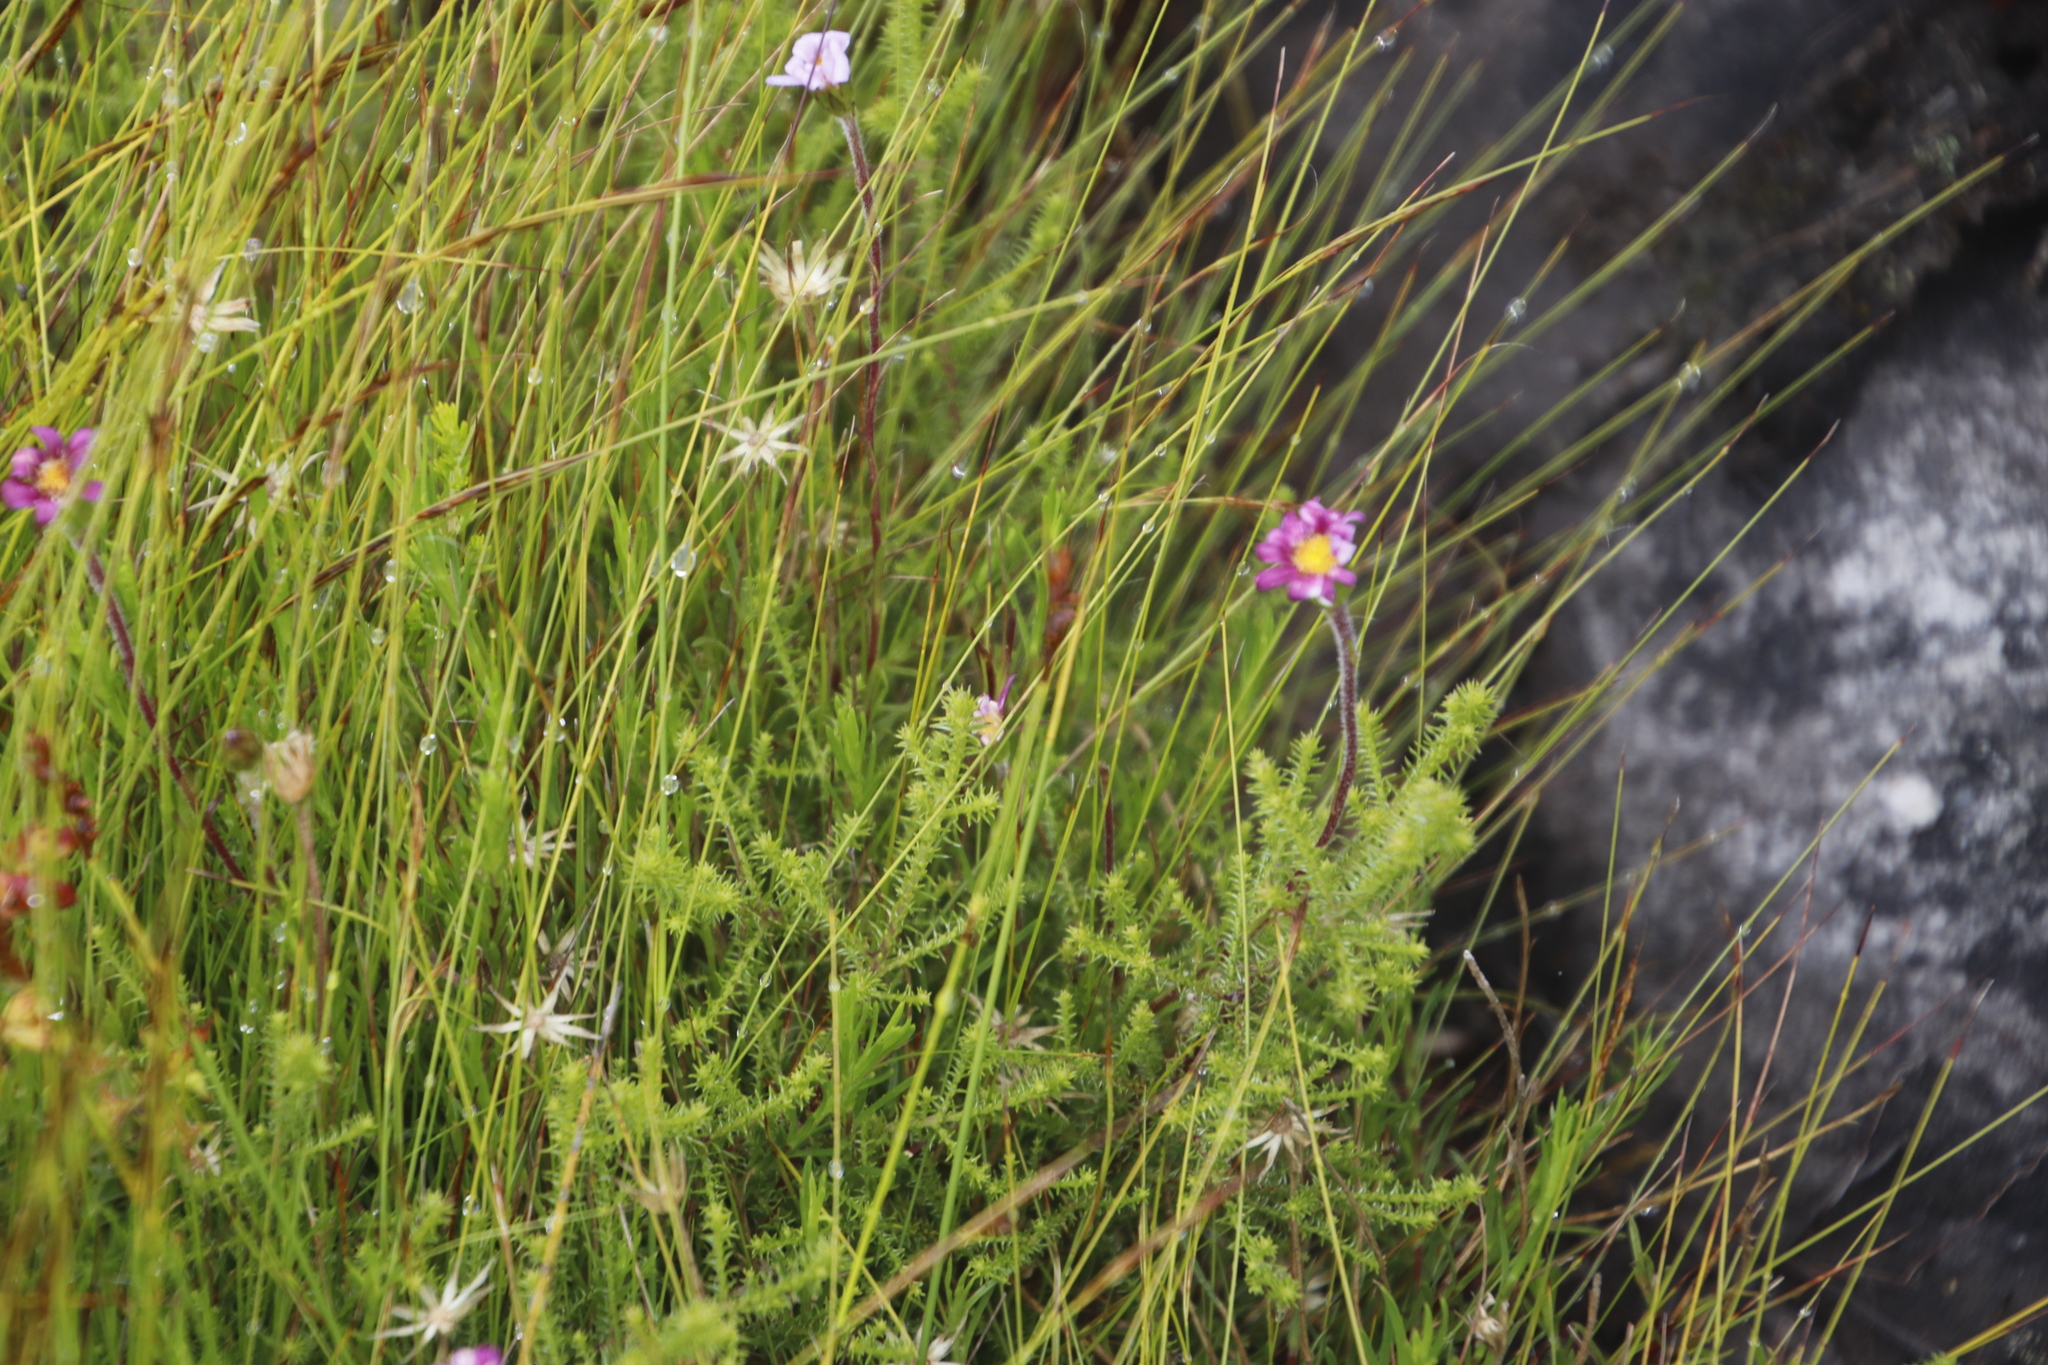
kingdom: Plantae
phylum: Tracheophyta
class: Magnoliopsida
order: Asterales
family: Asteraceae
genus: Zyrphelis
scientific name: Zyrphelis taxifolia
